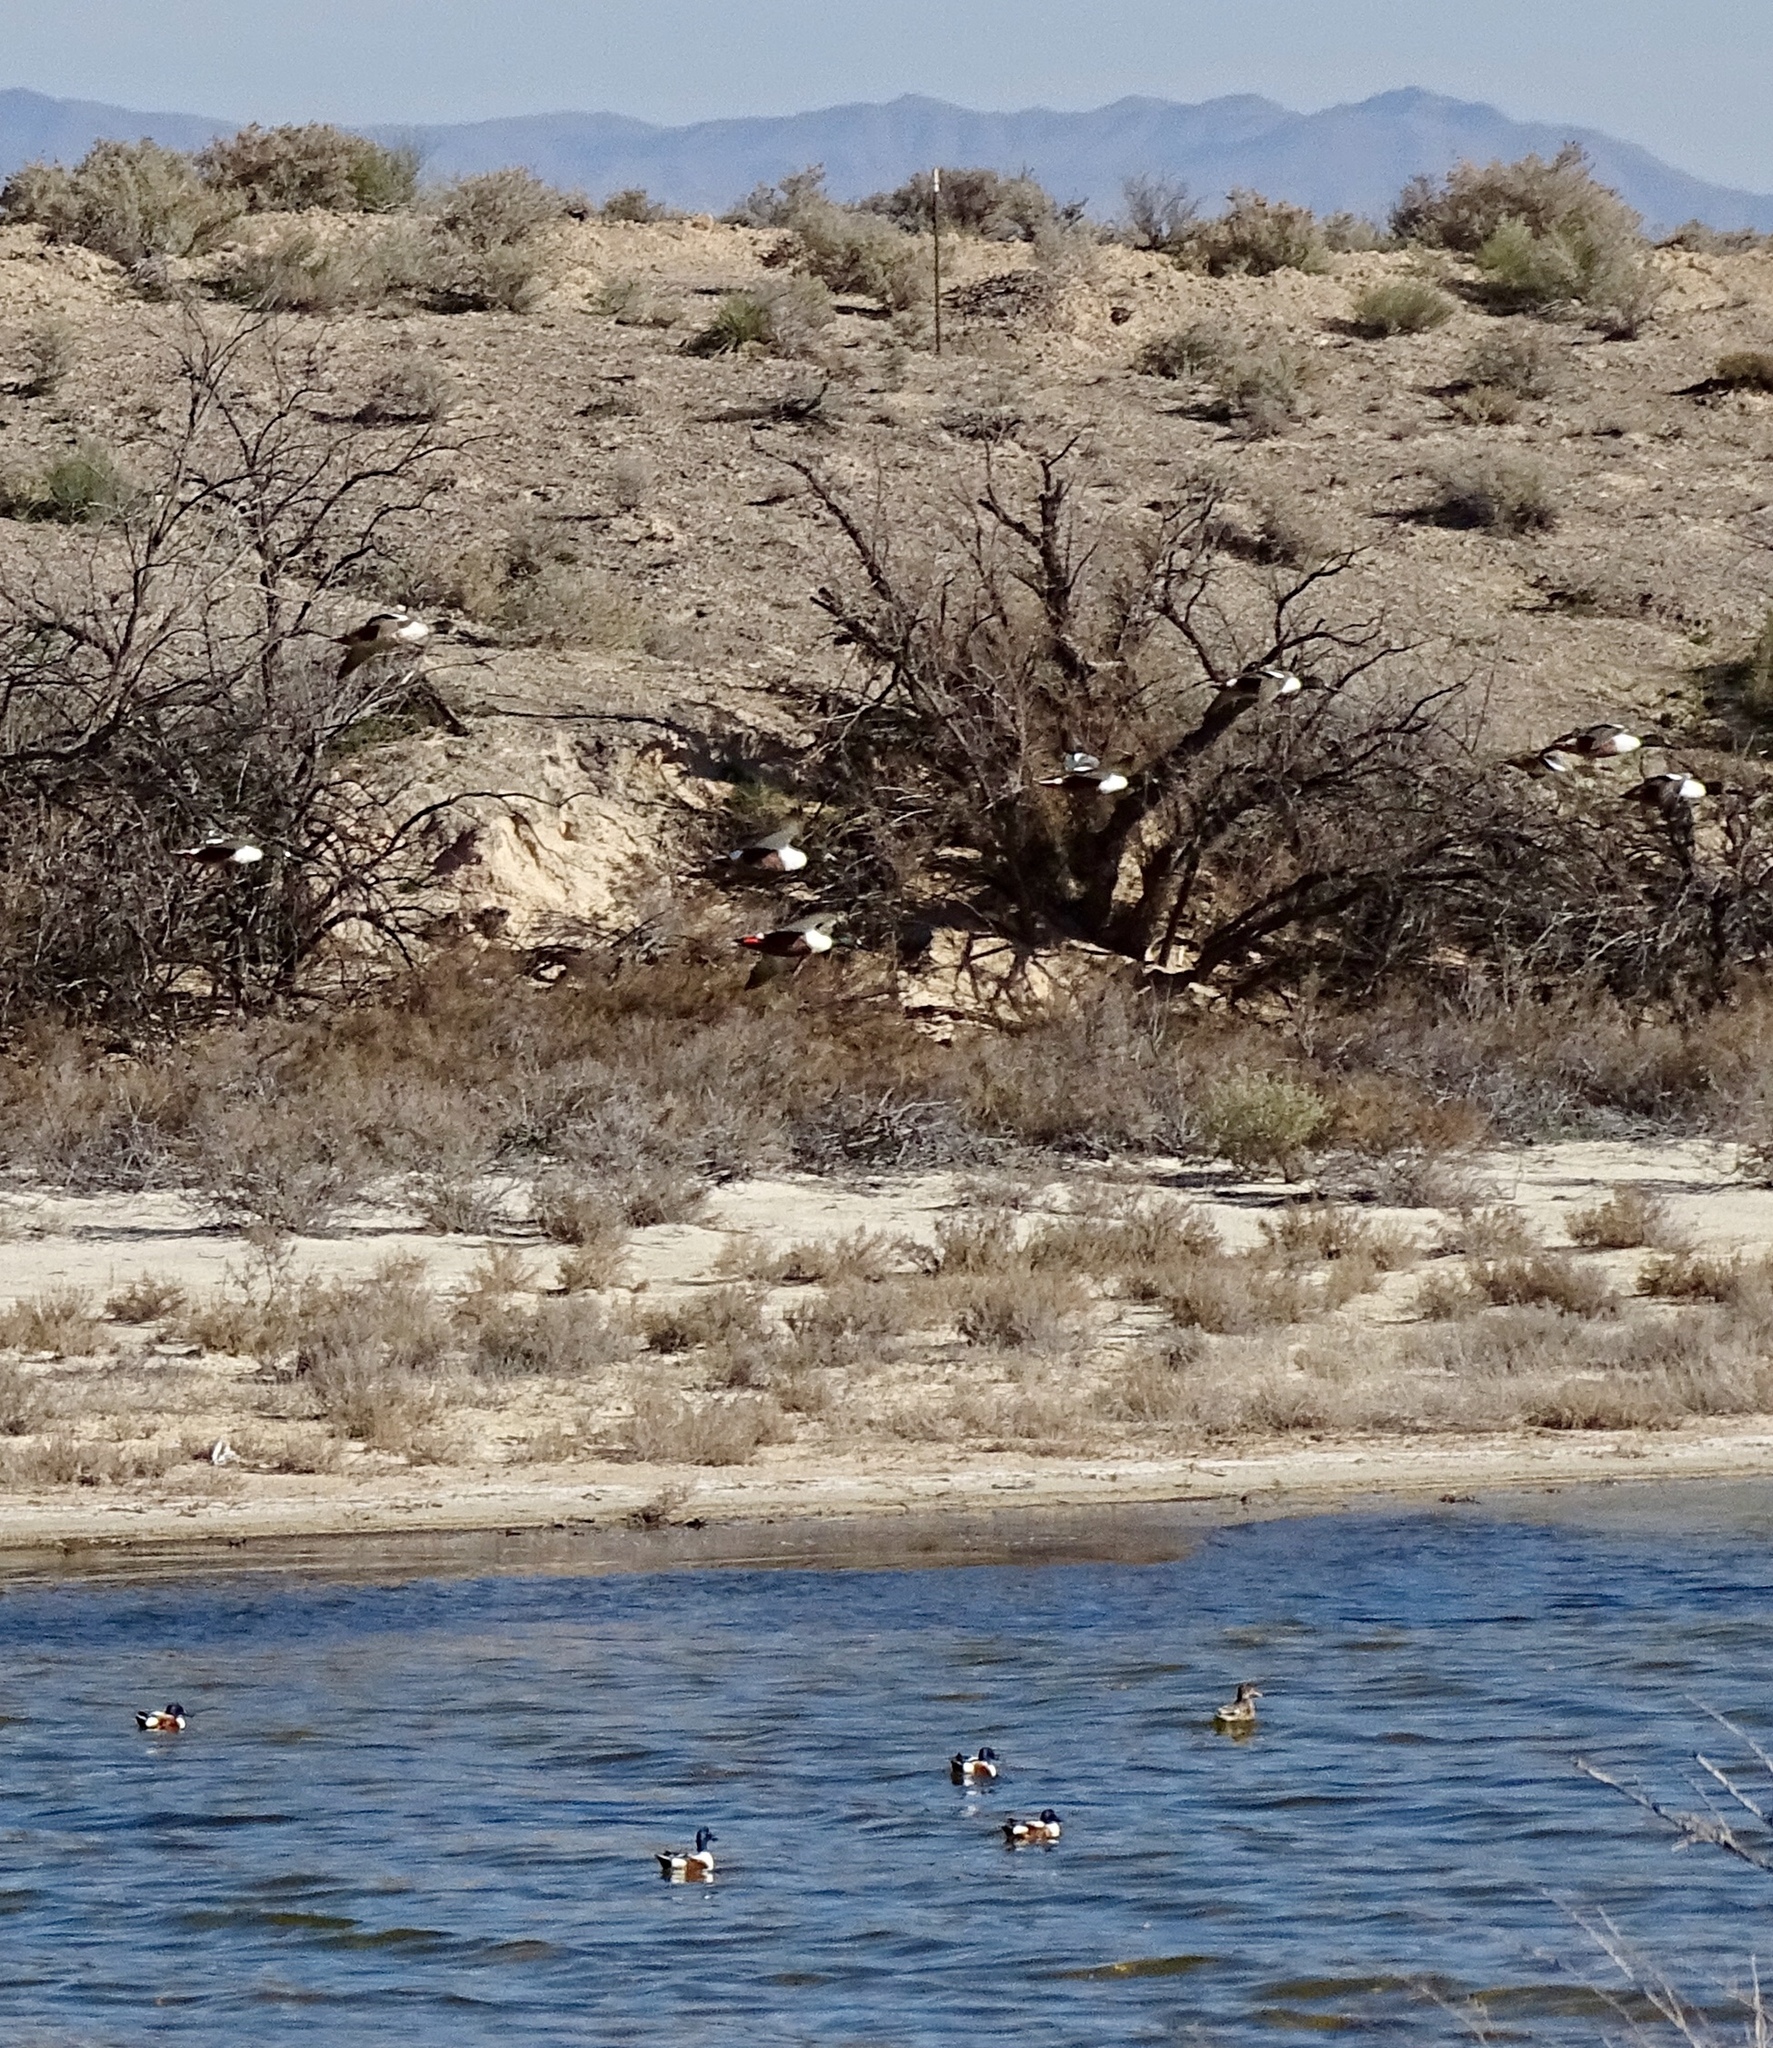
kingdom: Animalia
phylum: Chordata
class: Aves
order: Anseriformes
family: Anatidae
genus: Spatula
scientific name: Spatula clypeata
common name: Northern shoveler
